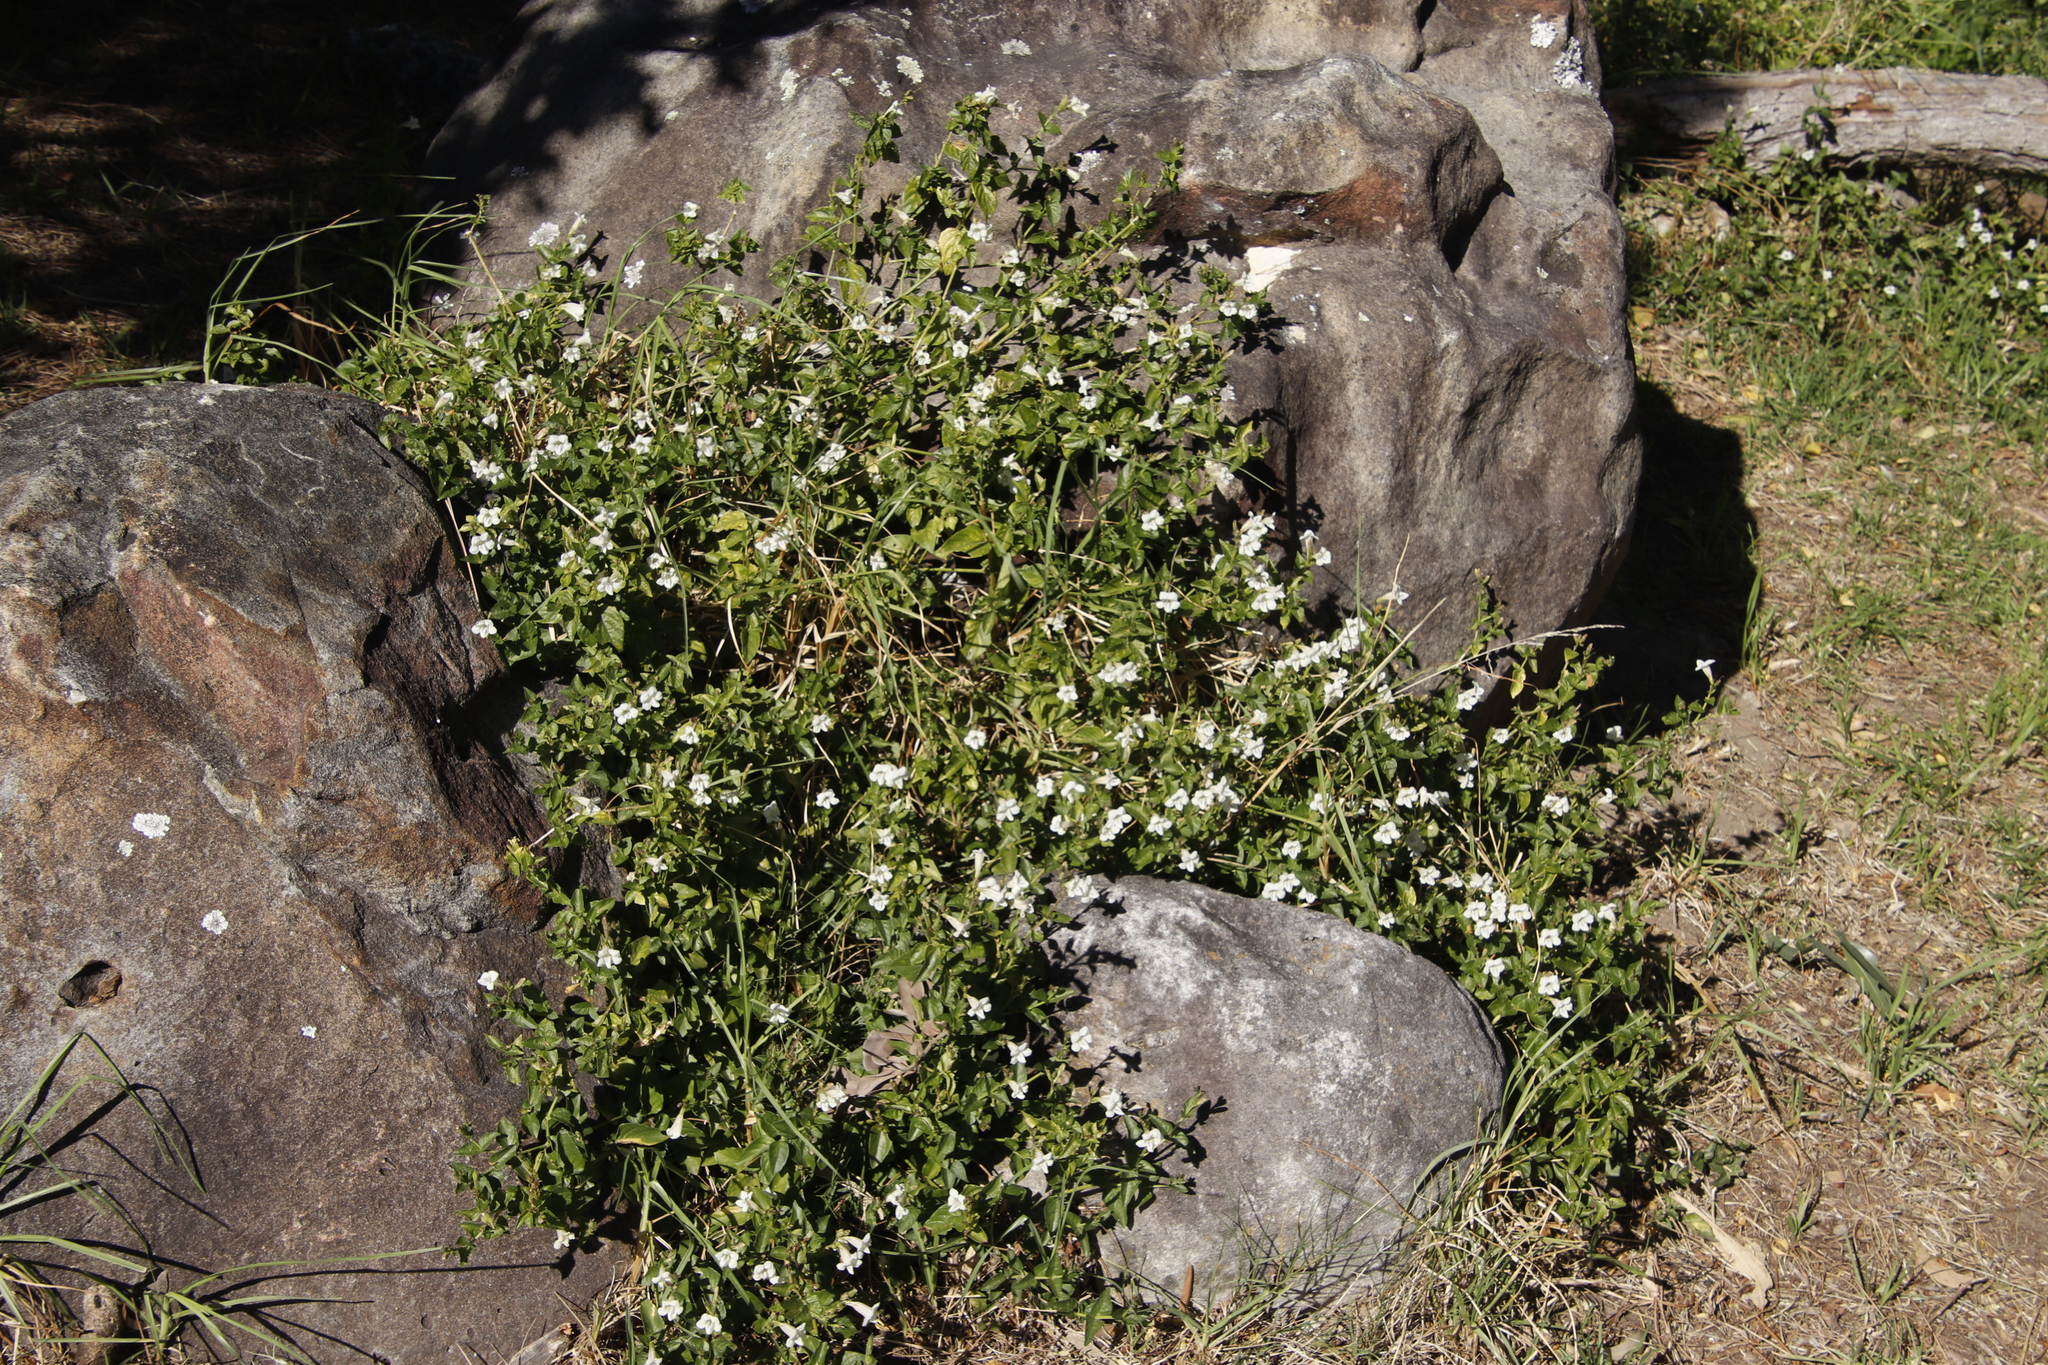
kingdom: Plantae
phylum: Tracheophyta
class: Magnoliopsida
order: Lamiales
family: Acanthaceae
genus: Asystasia
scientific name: Asystasia intrusa
